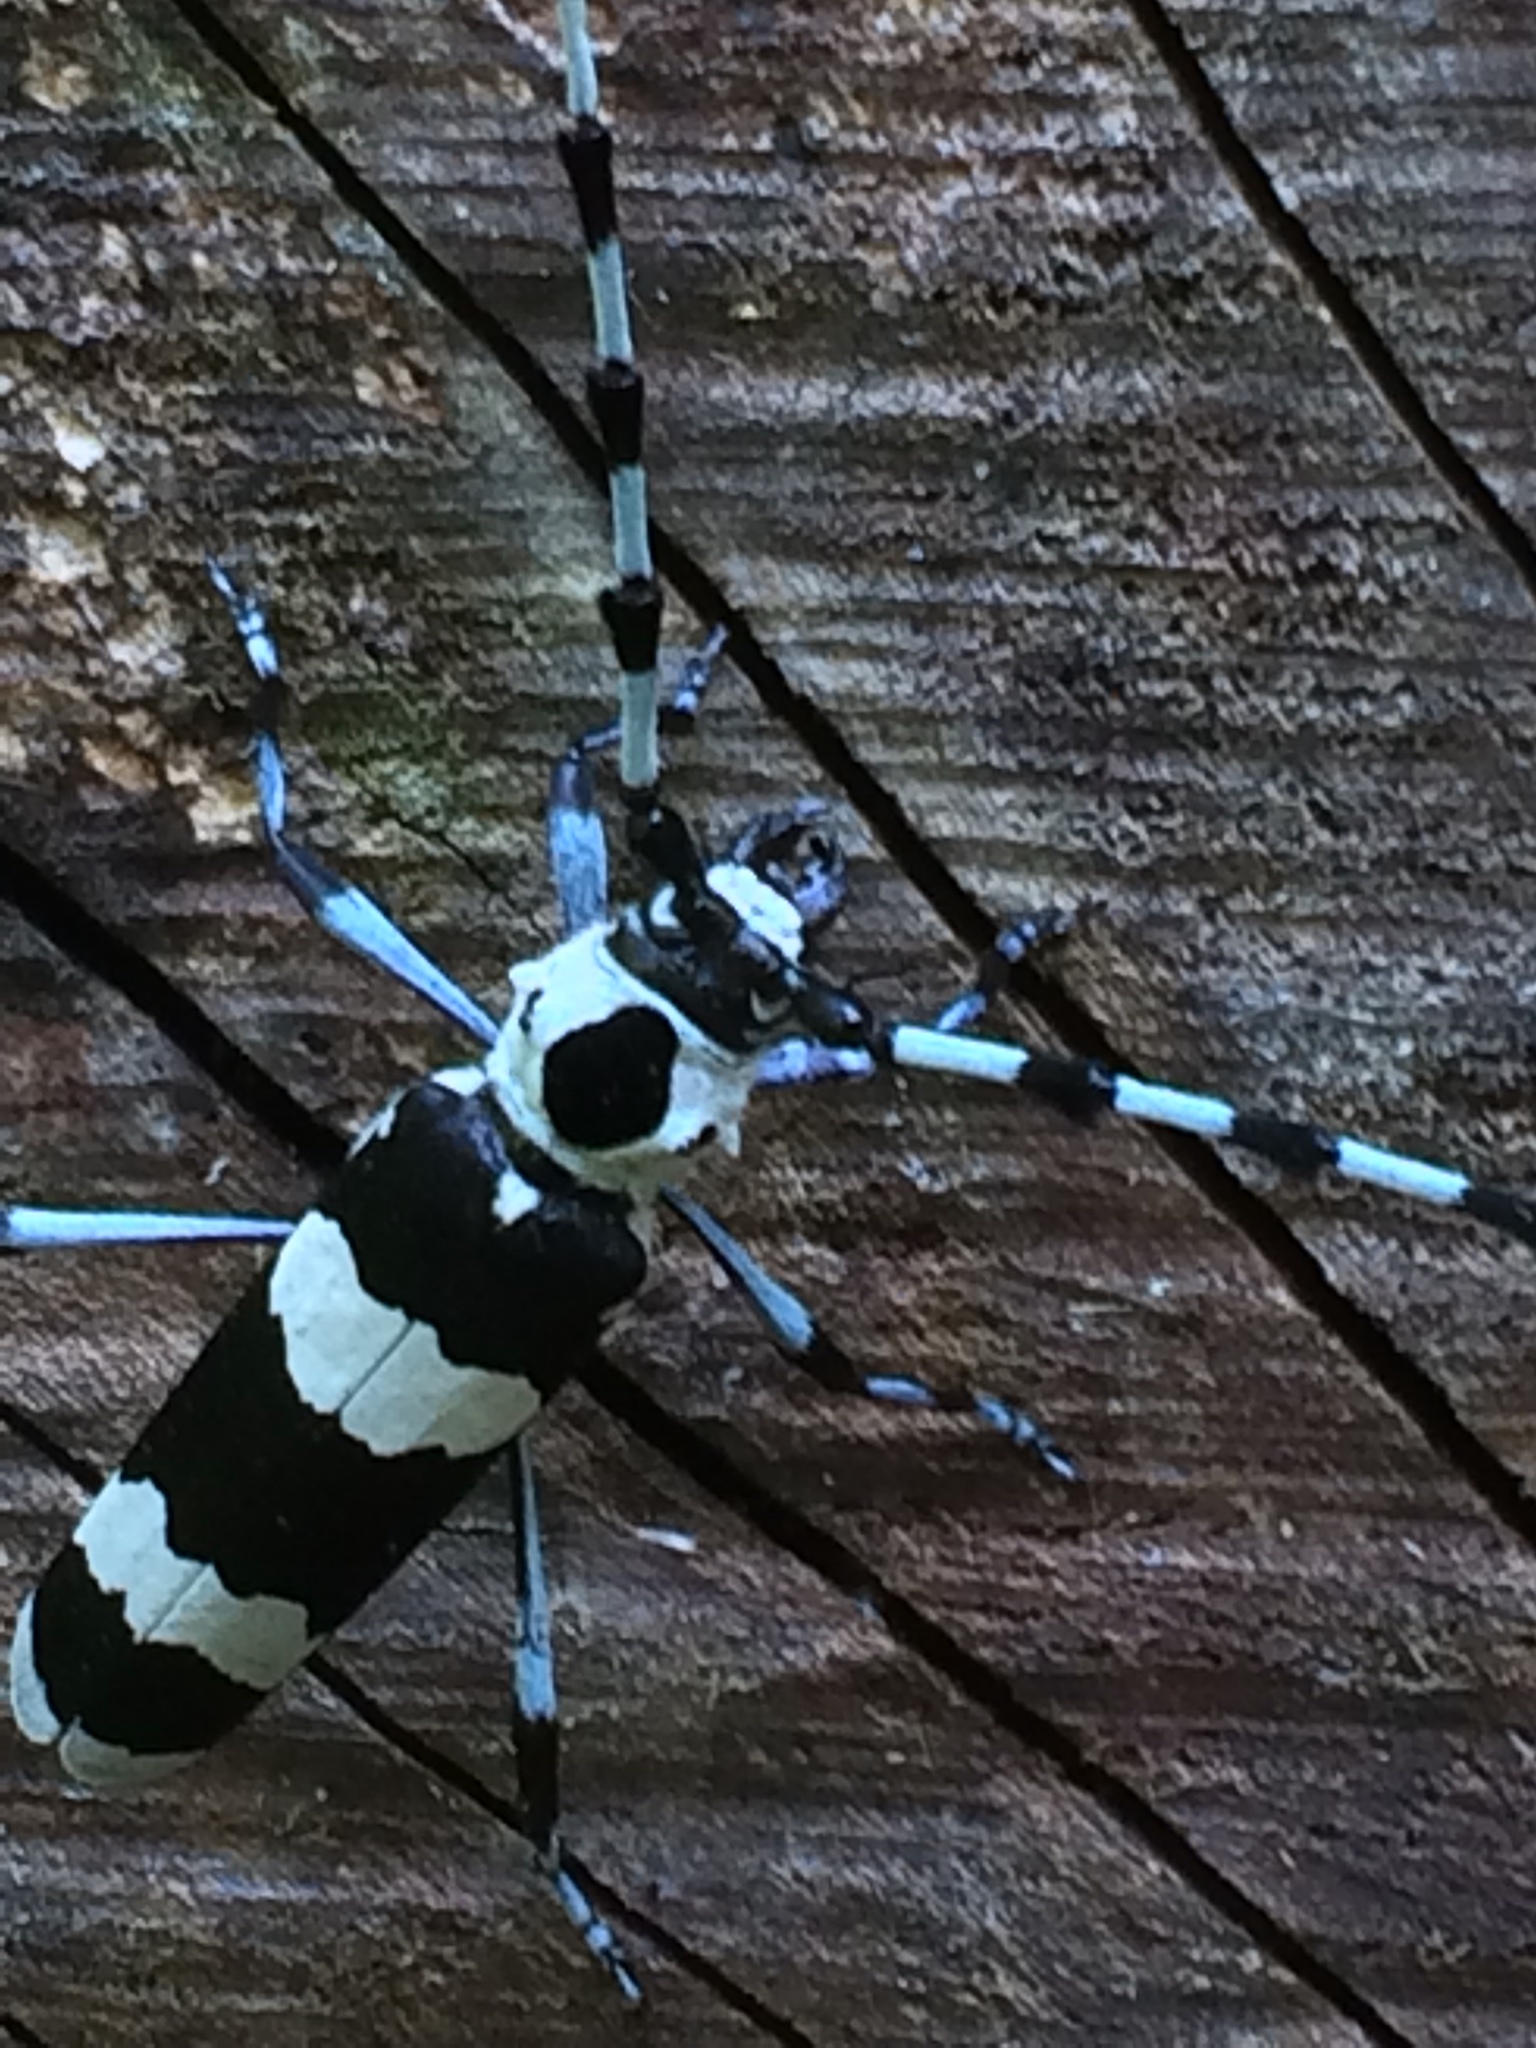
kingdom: Animalia
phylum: Arthropoda
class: Insecta
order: Coleoptera
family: Cerambycidae
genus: Rosalia
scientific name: Rosalia funebris
